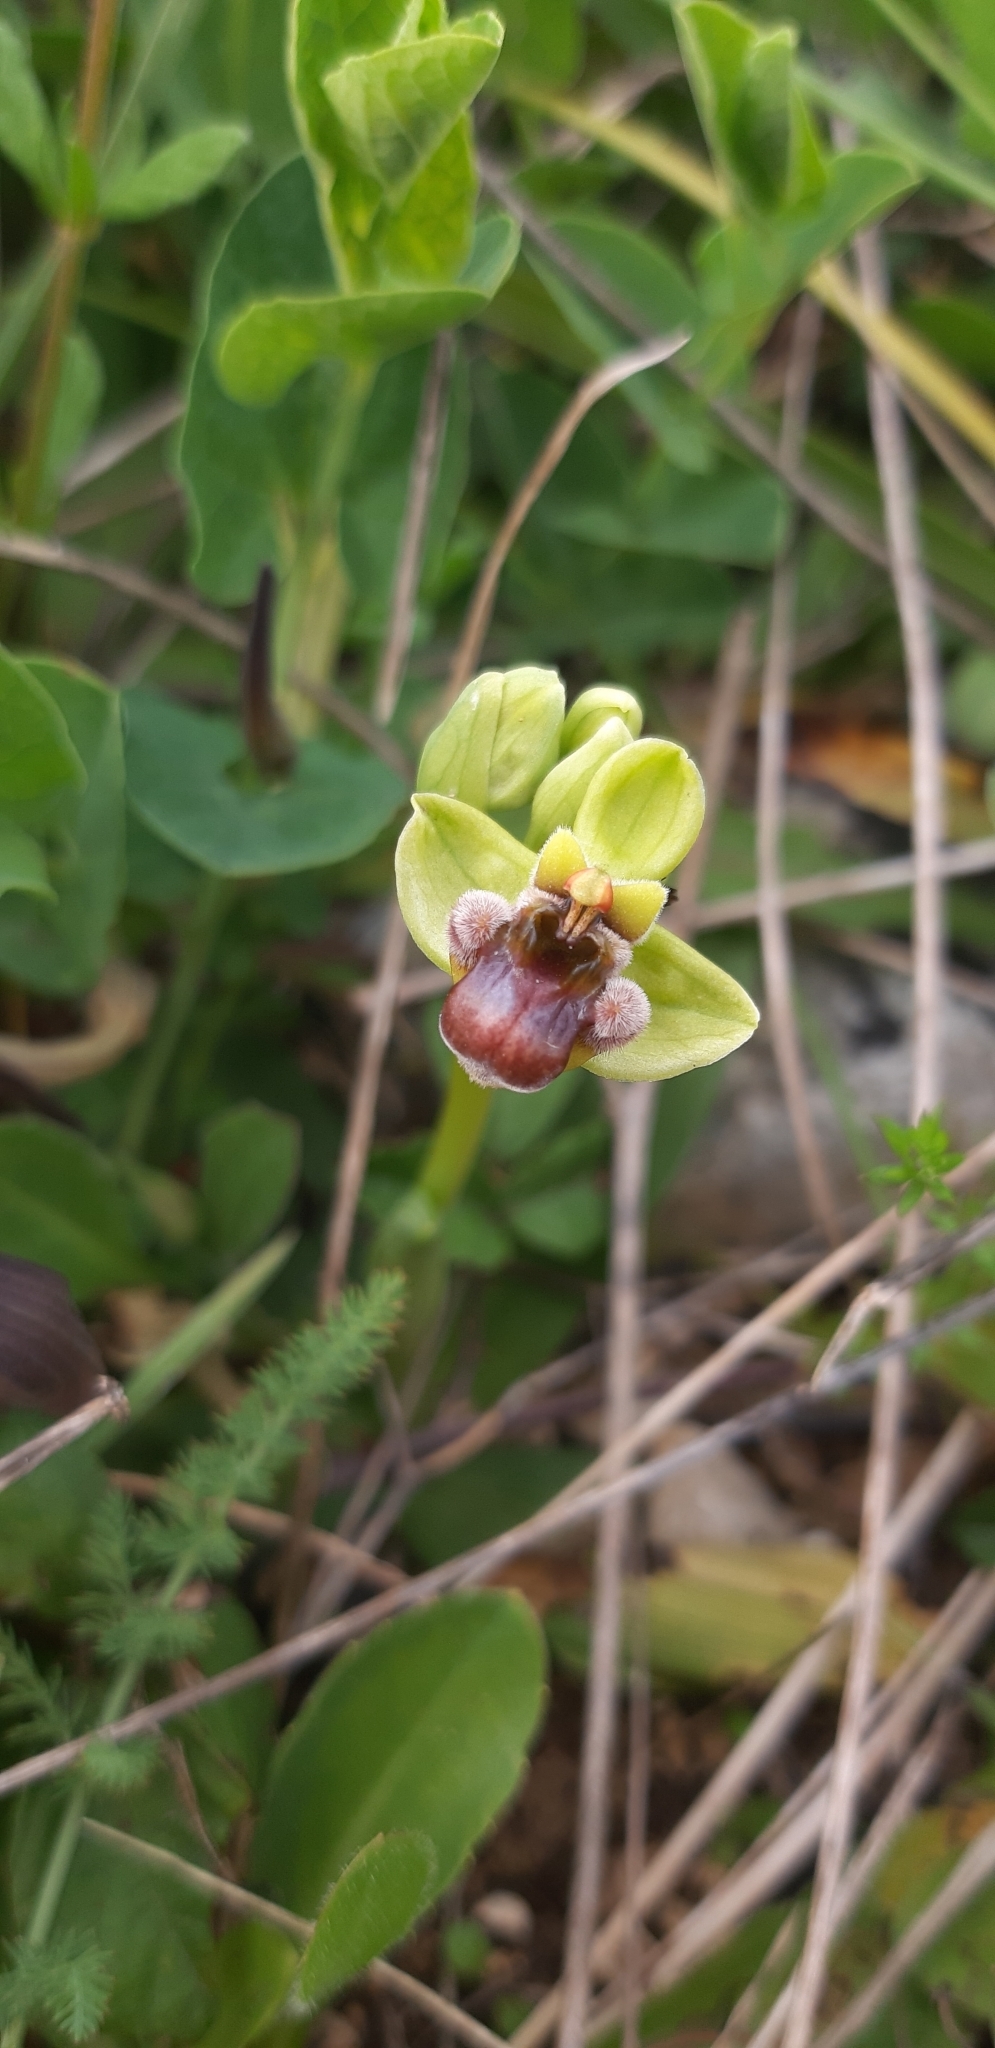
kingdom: Plantae
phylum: Tracheophyta
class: Liliopsida
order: Asparagales
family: Orchidaceae
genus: Ophrys
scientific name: Ophrys bombyliflora
